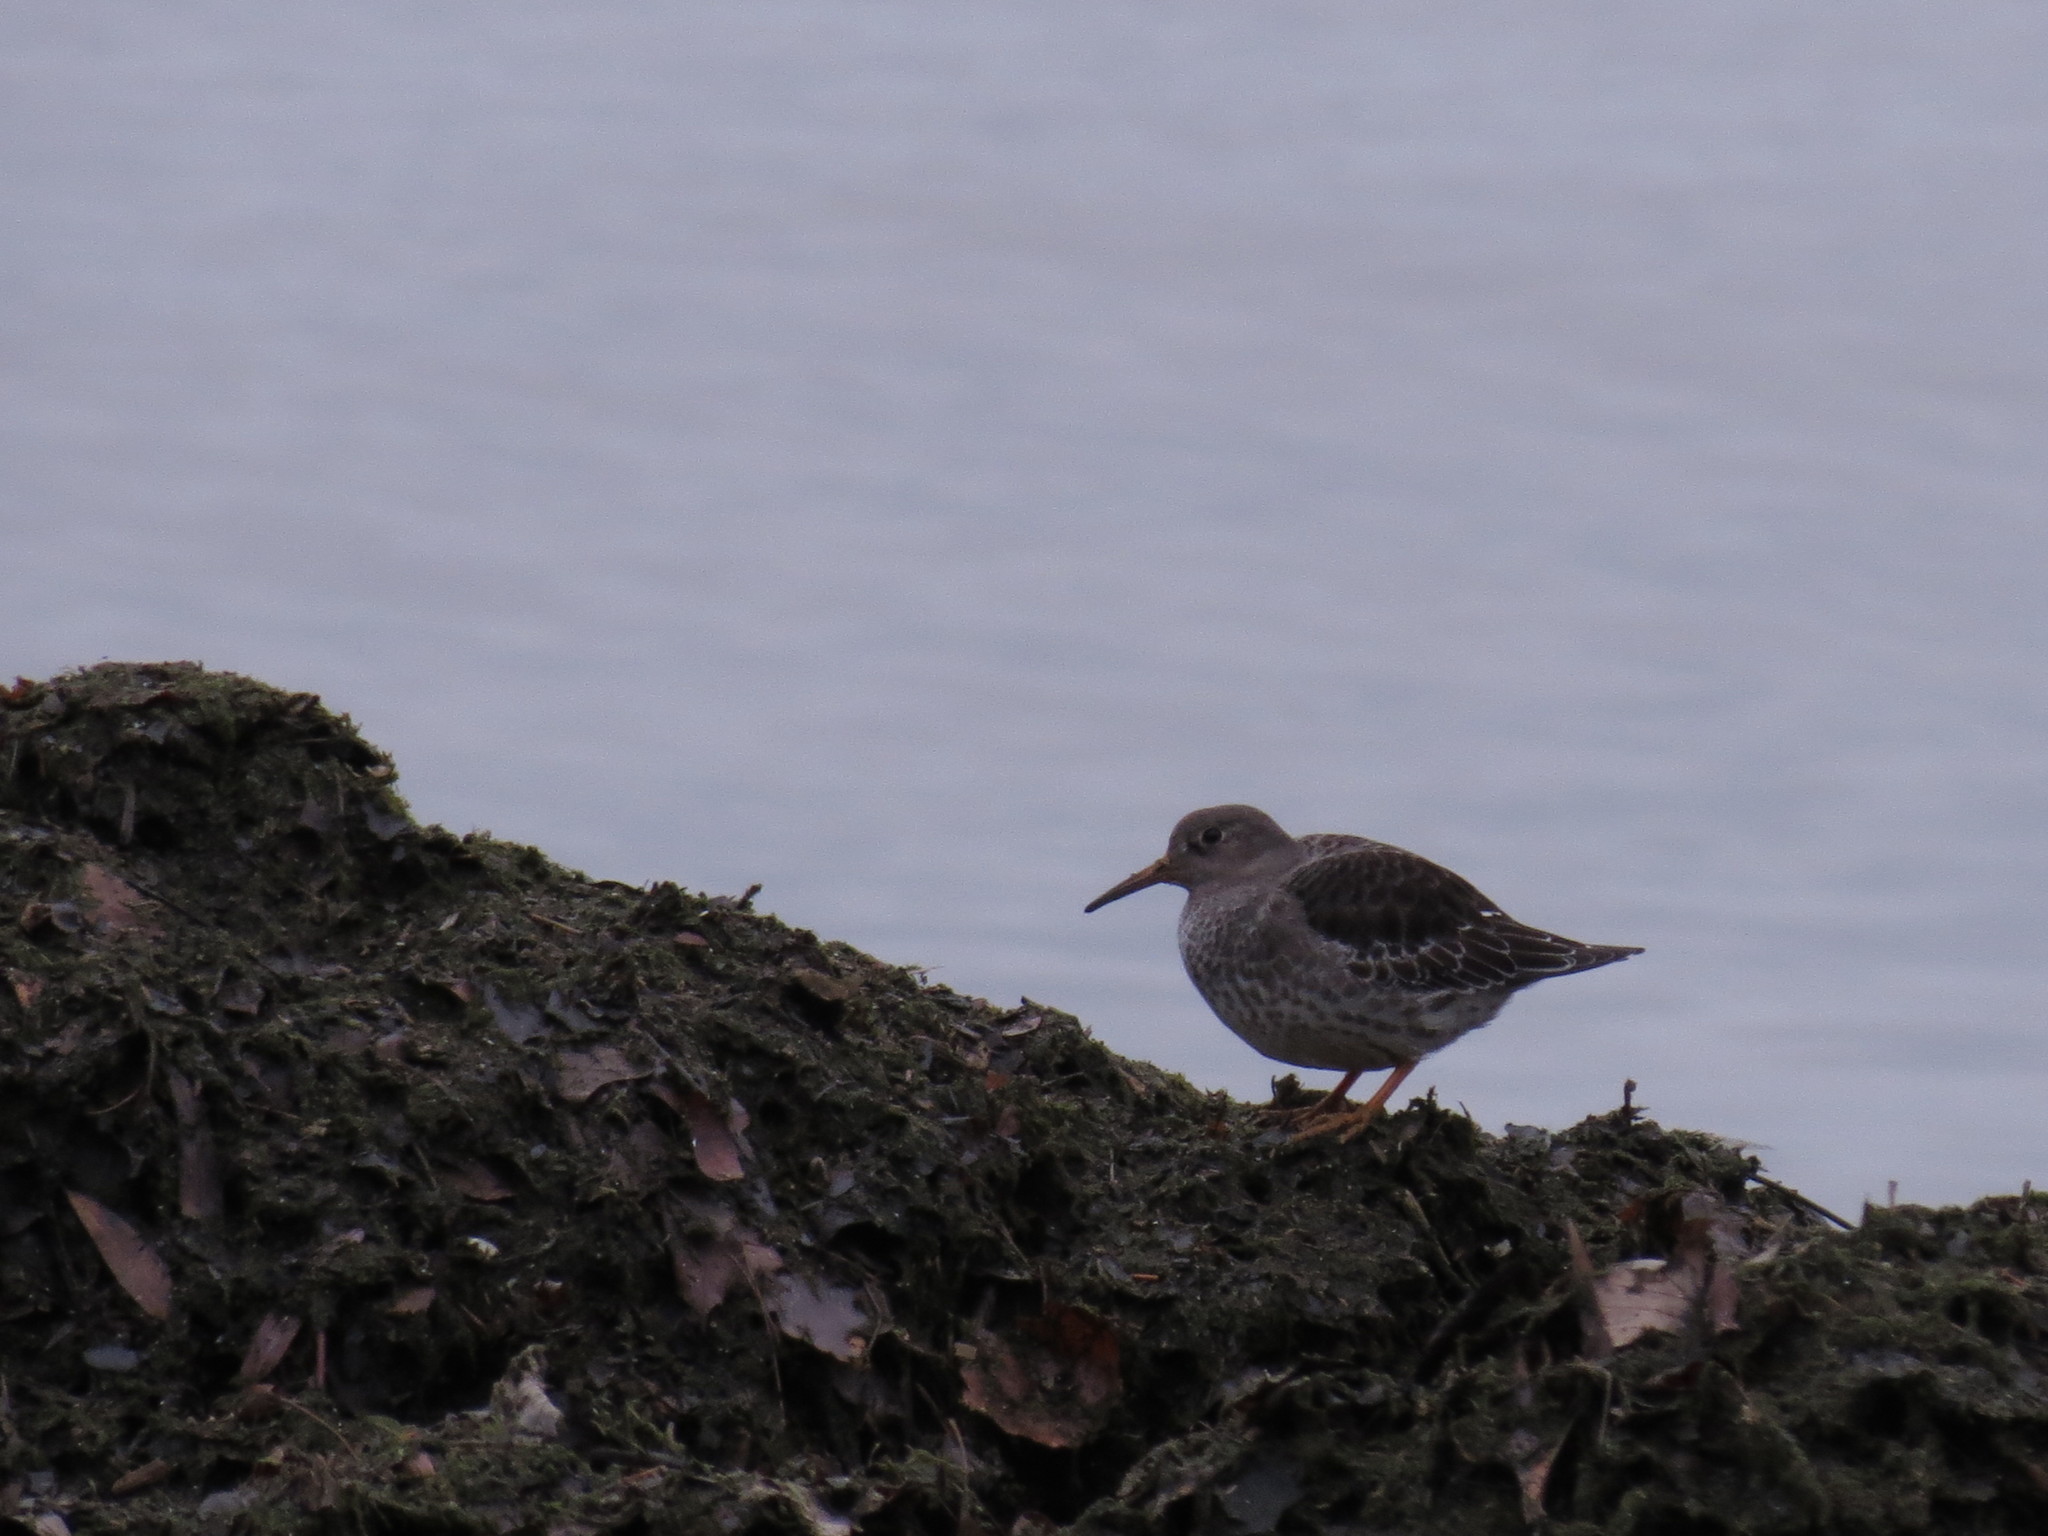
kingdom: Animalia
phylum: Chordata
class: Aves
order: Charadriiformes
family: Scolopacidae
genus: Calidris
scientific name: Calidris maritima
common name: Purple sandpiper
